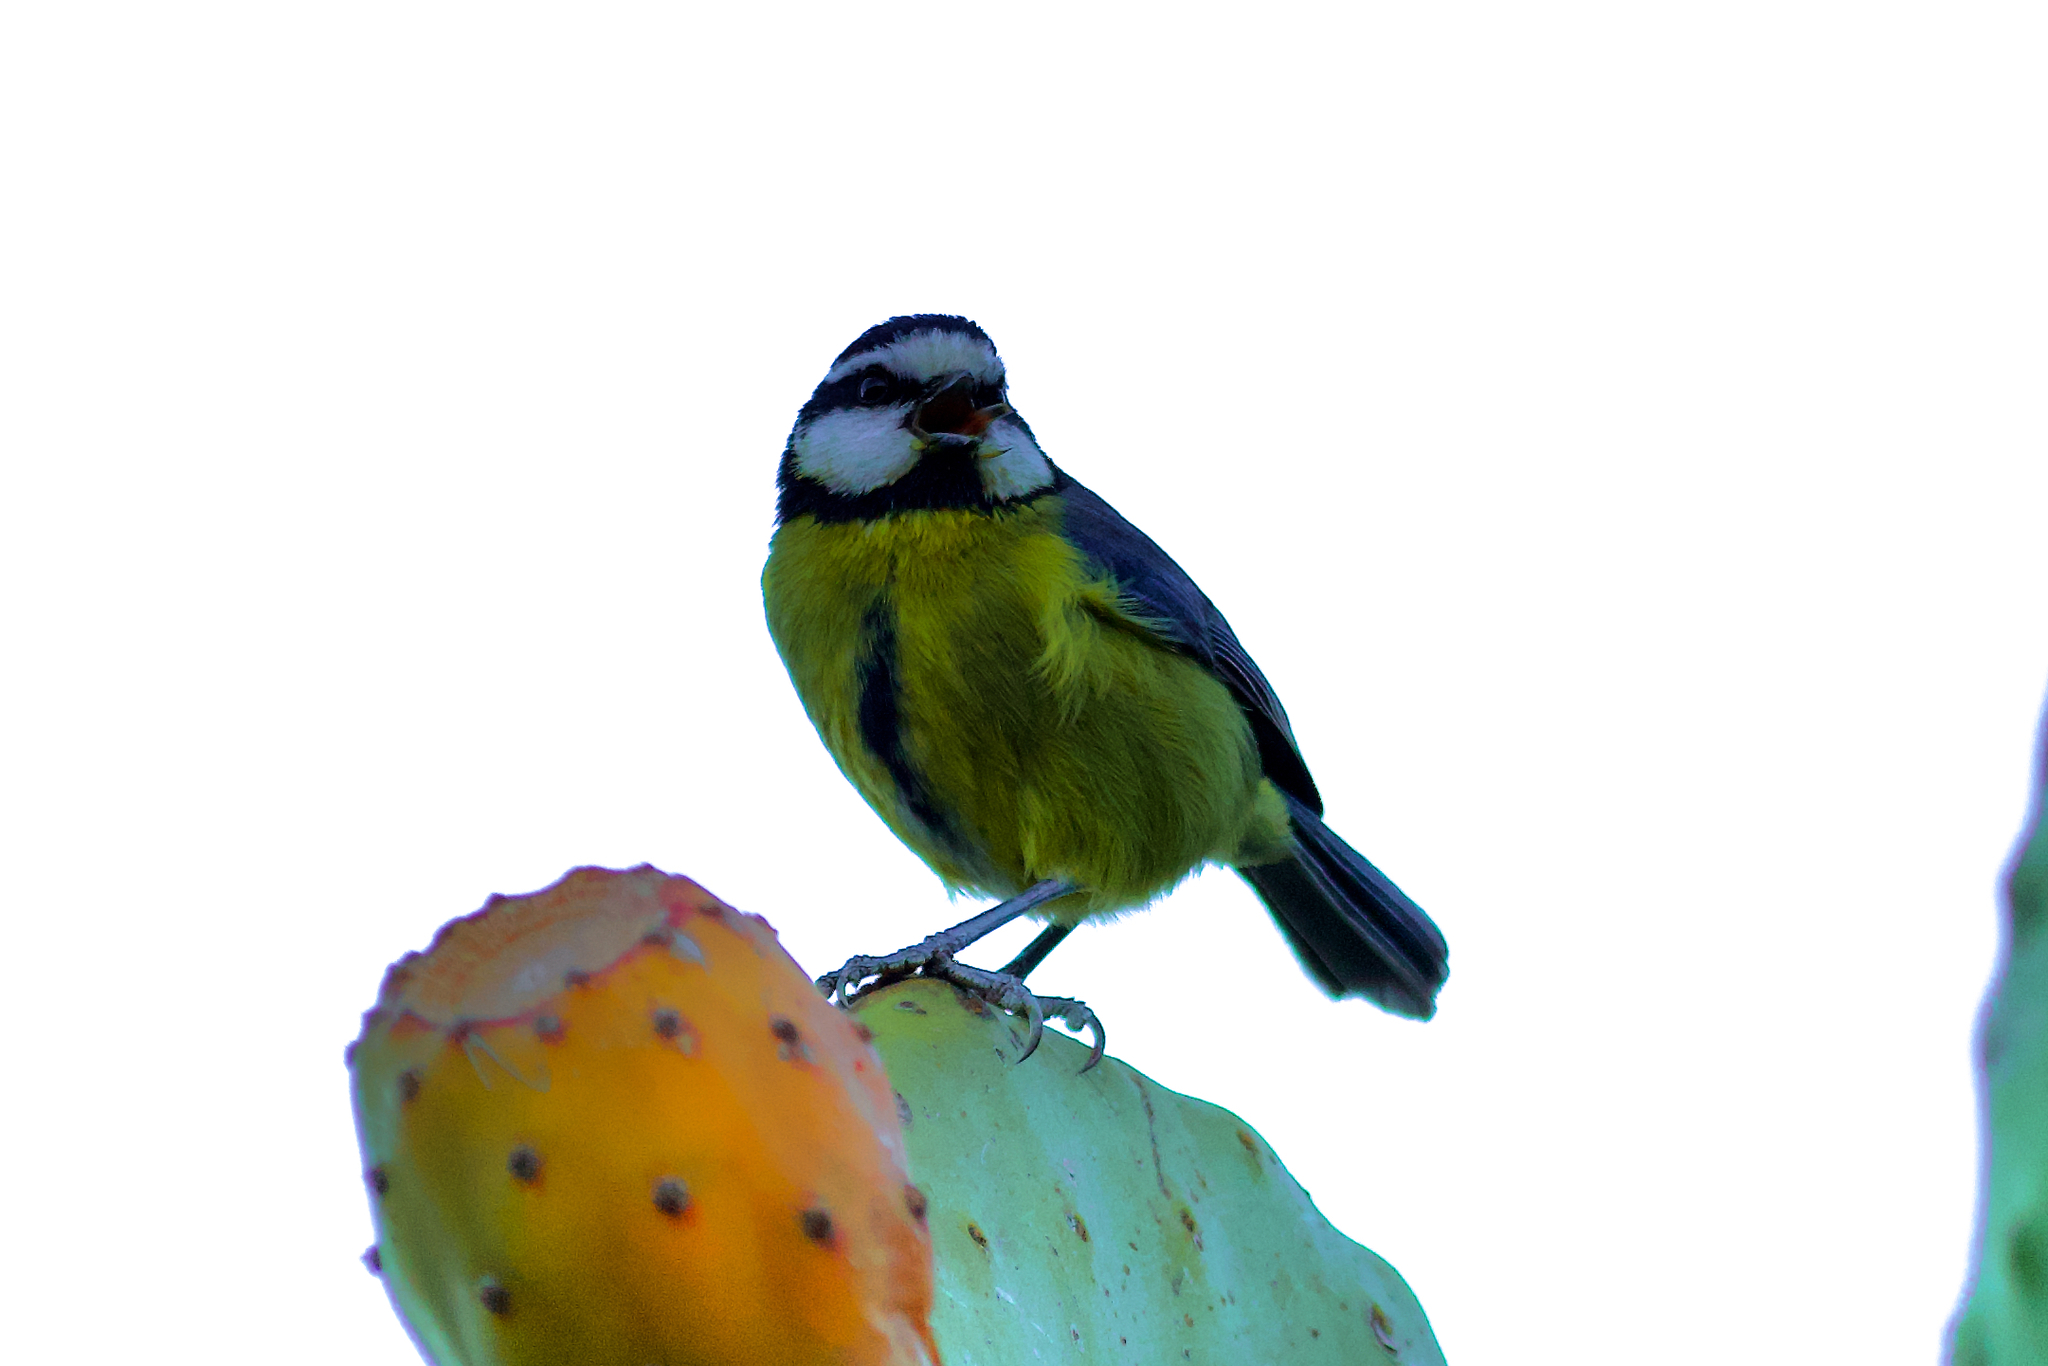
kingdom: Animalia
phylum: Chordata
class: Aves
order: Passeriformes
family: Paridae
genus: Cyanistes
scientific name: Cyanistes teneriffae
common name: African blue tit
